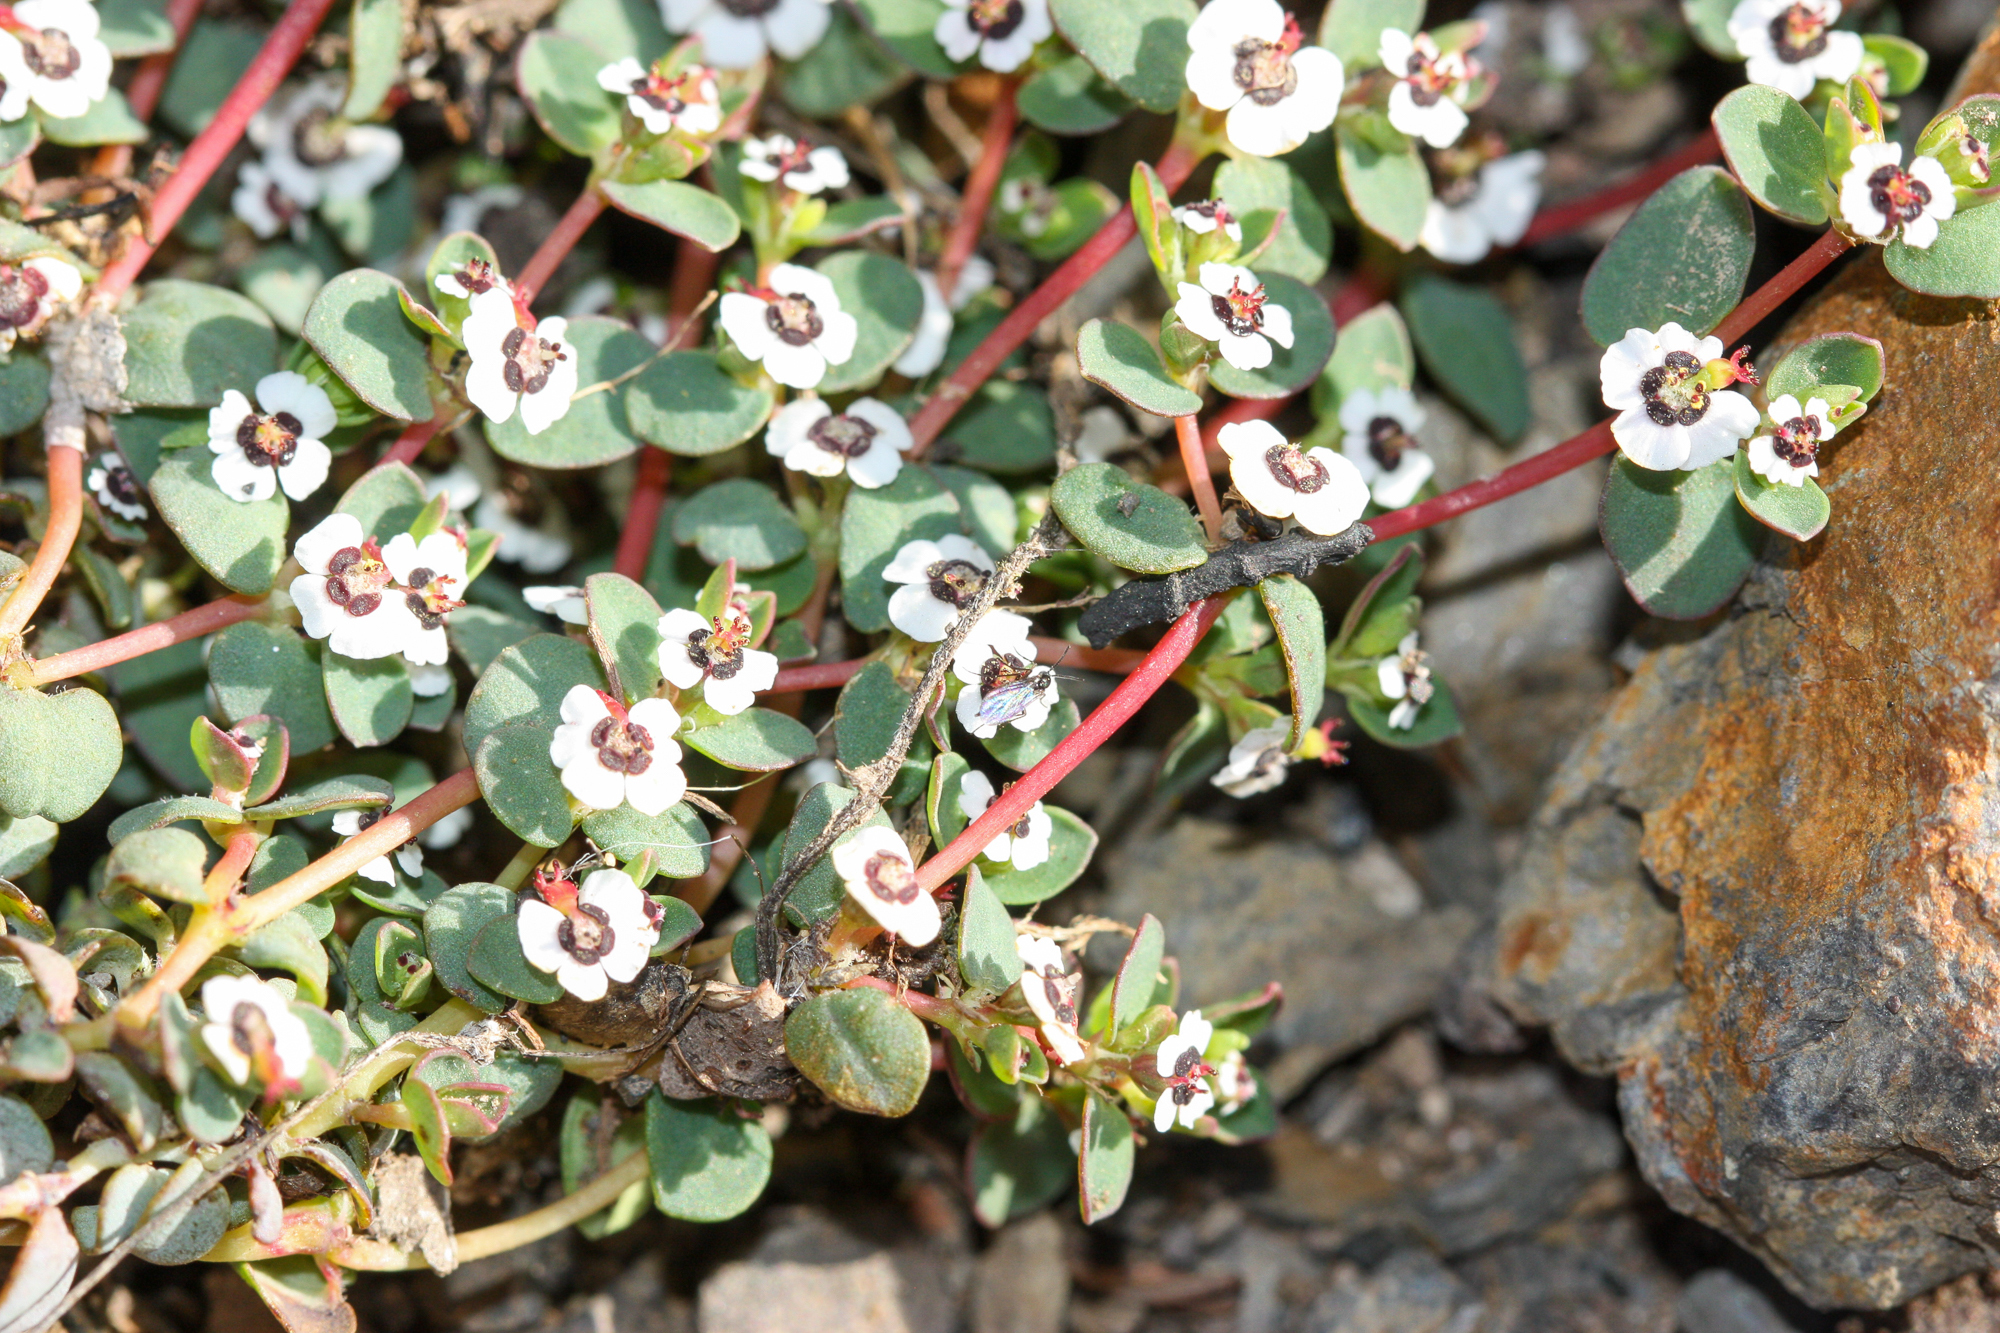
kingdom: Plantae
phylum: Tracheophyta
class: Magnoliopsida
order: Malpighiales
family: Euphorbiaceae
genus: Euphorbia
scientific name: Euphorbia polycarpa
